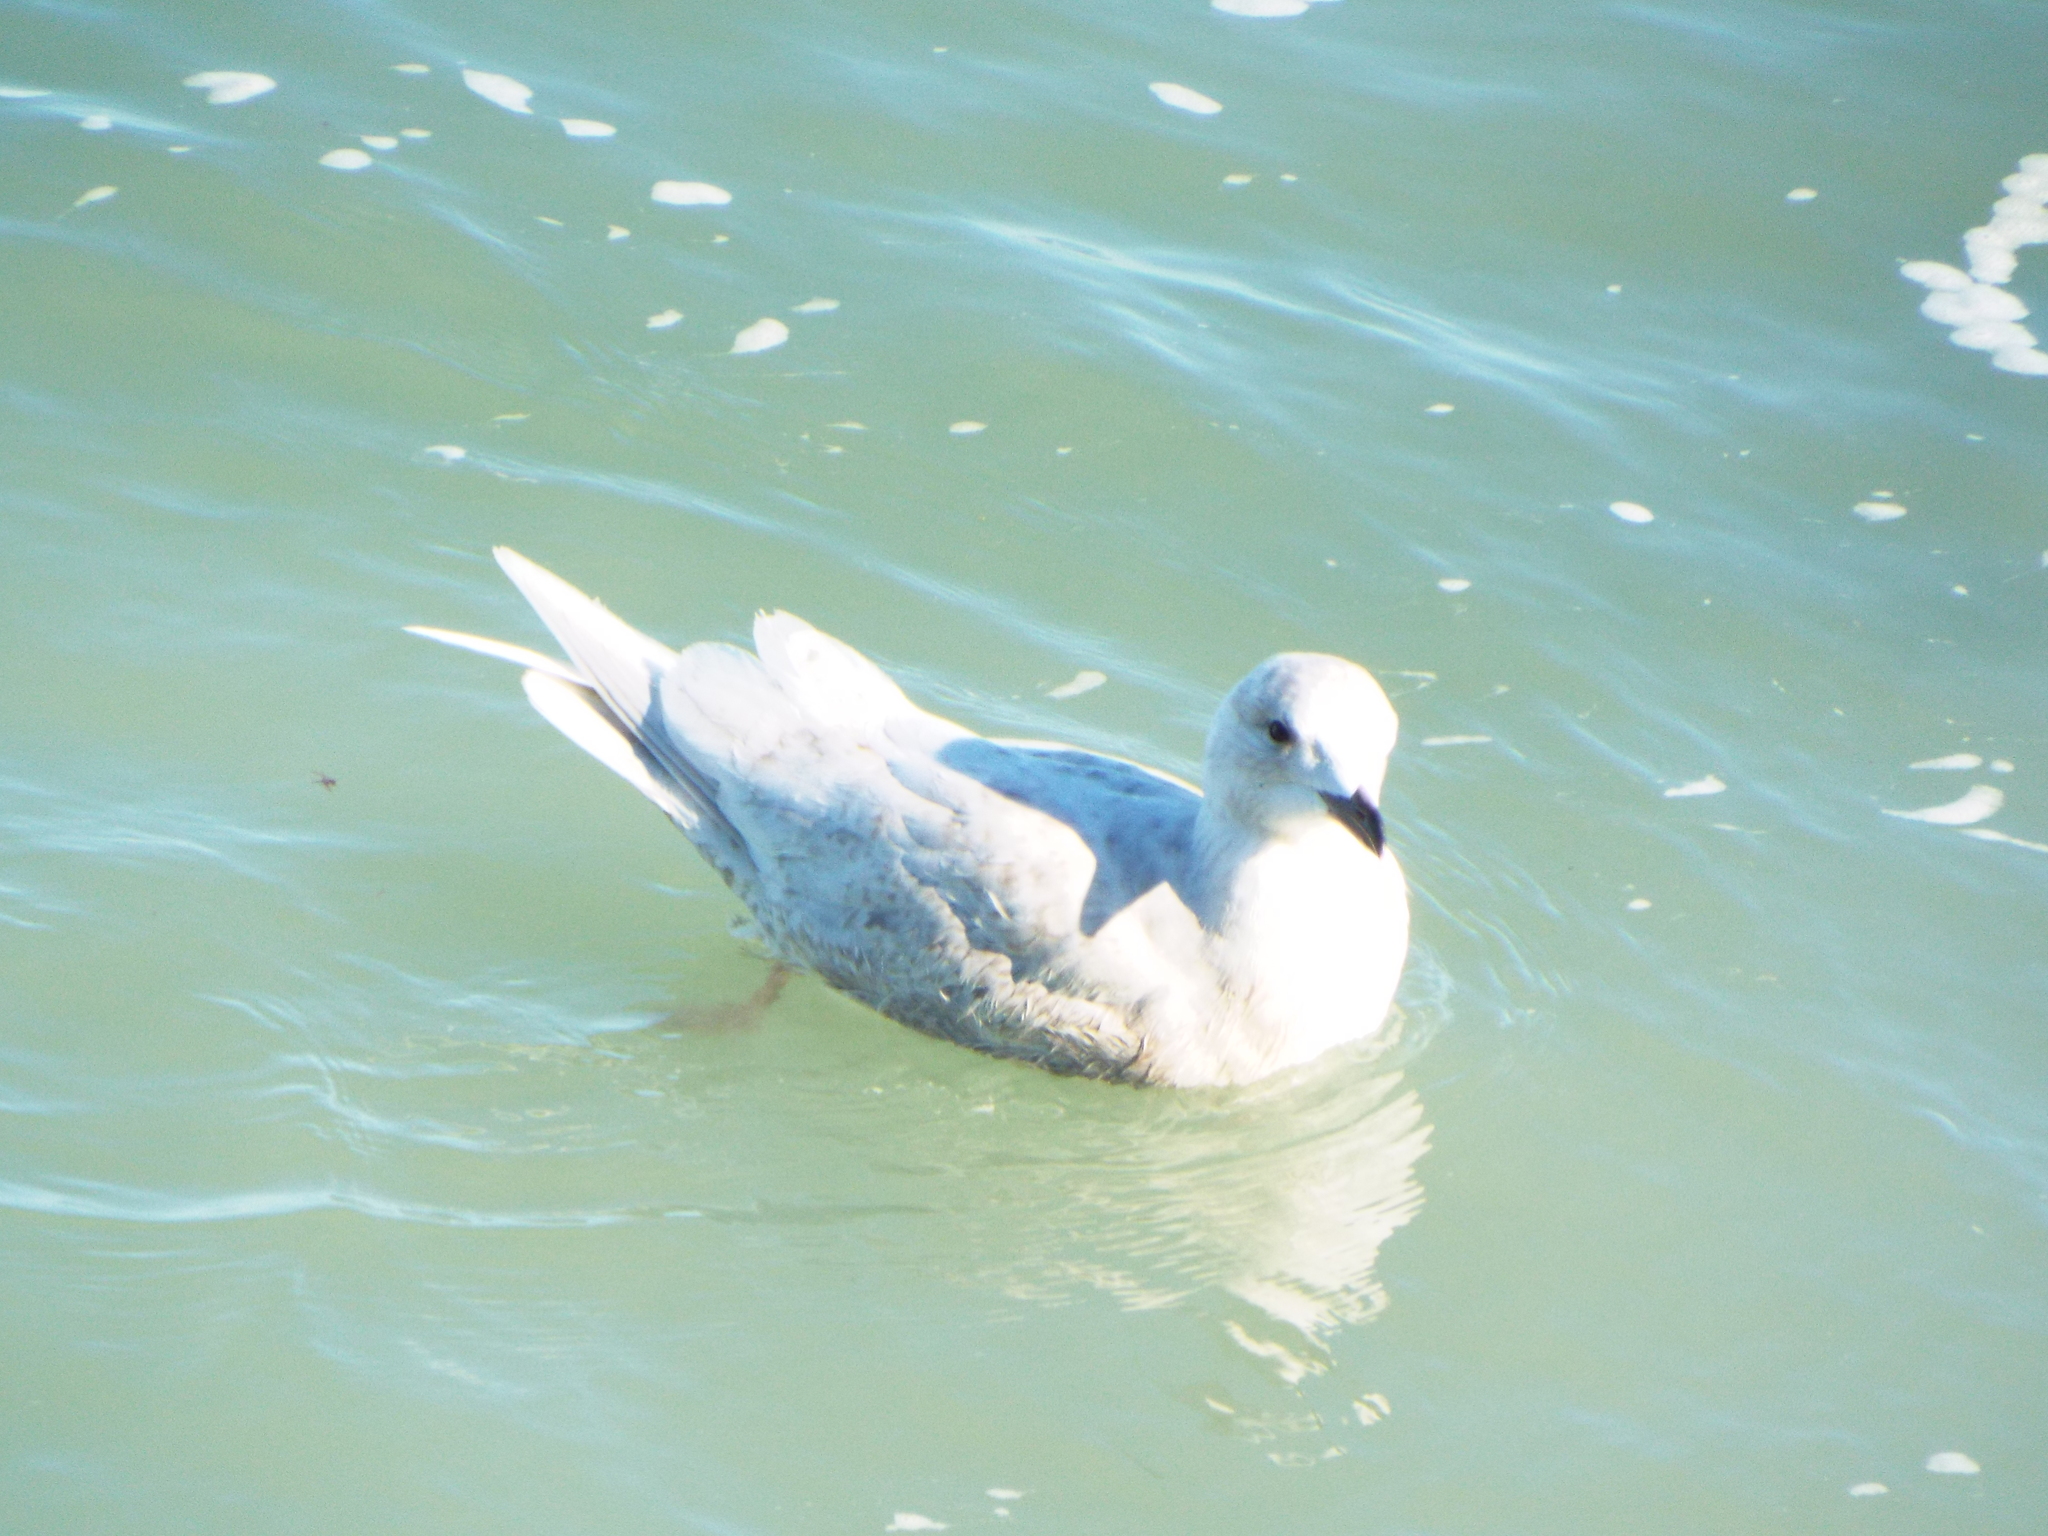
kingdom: Animalia
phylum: Chordata
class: Aves
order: Charadriiformes
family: Laridae
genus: Larus
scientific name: Larus glaucoides
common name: Iceland gull
